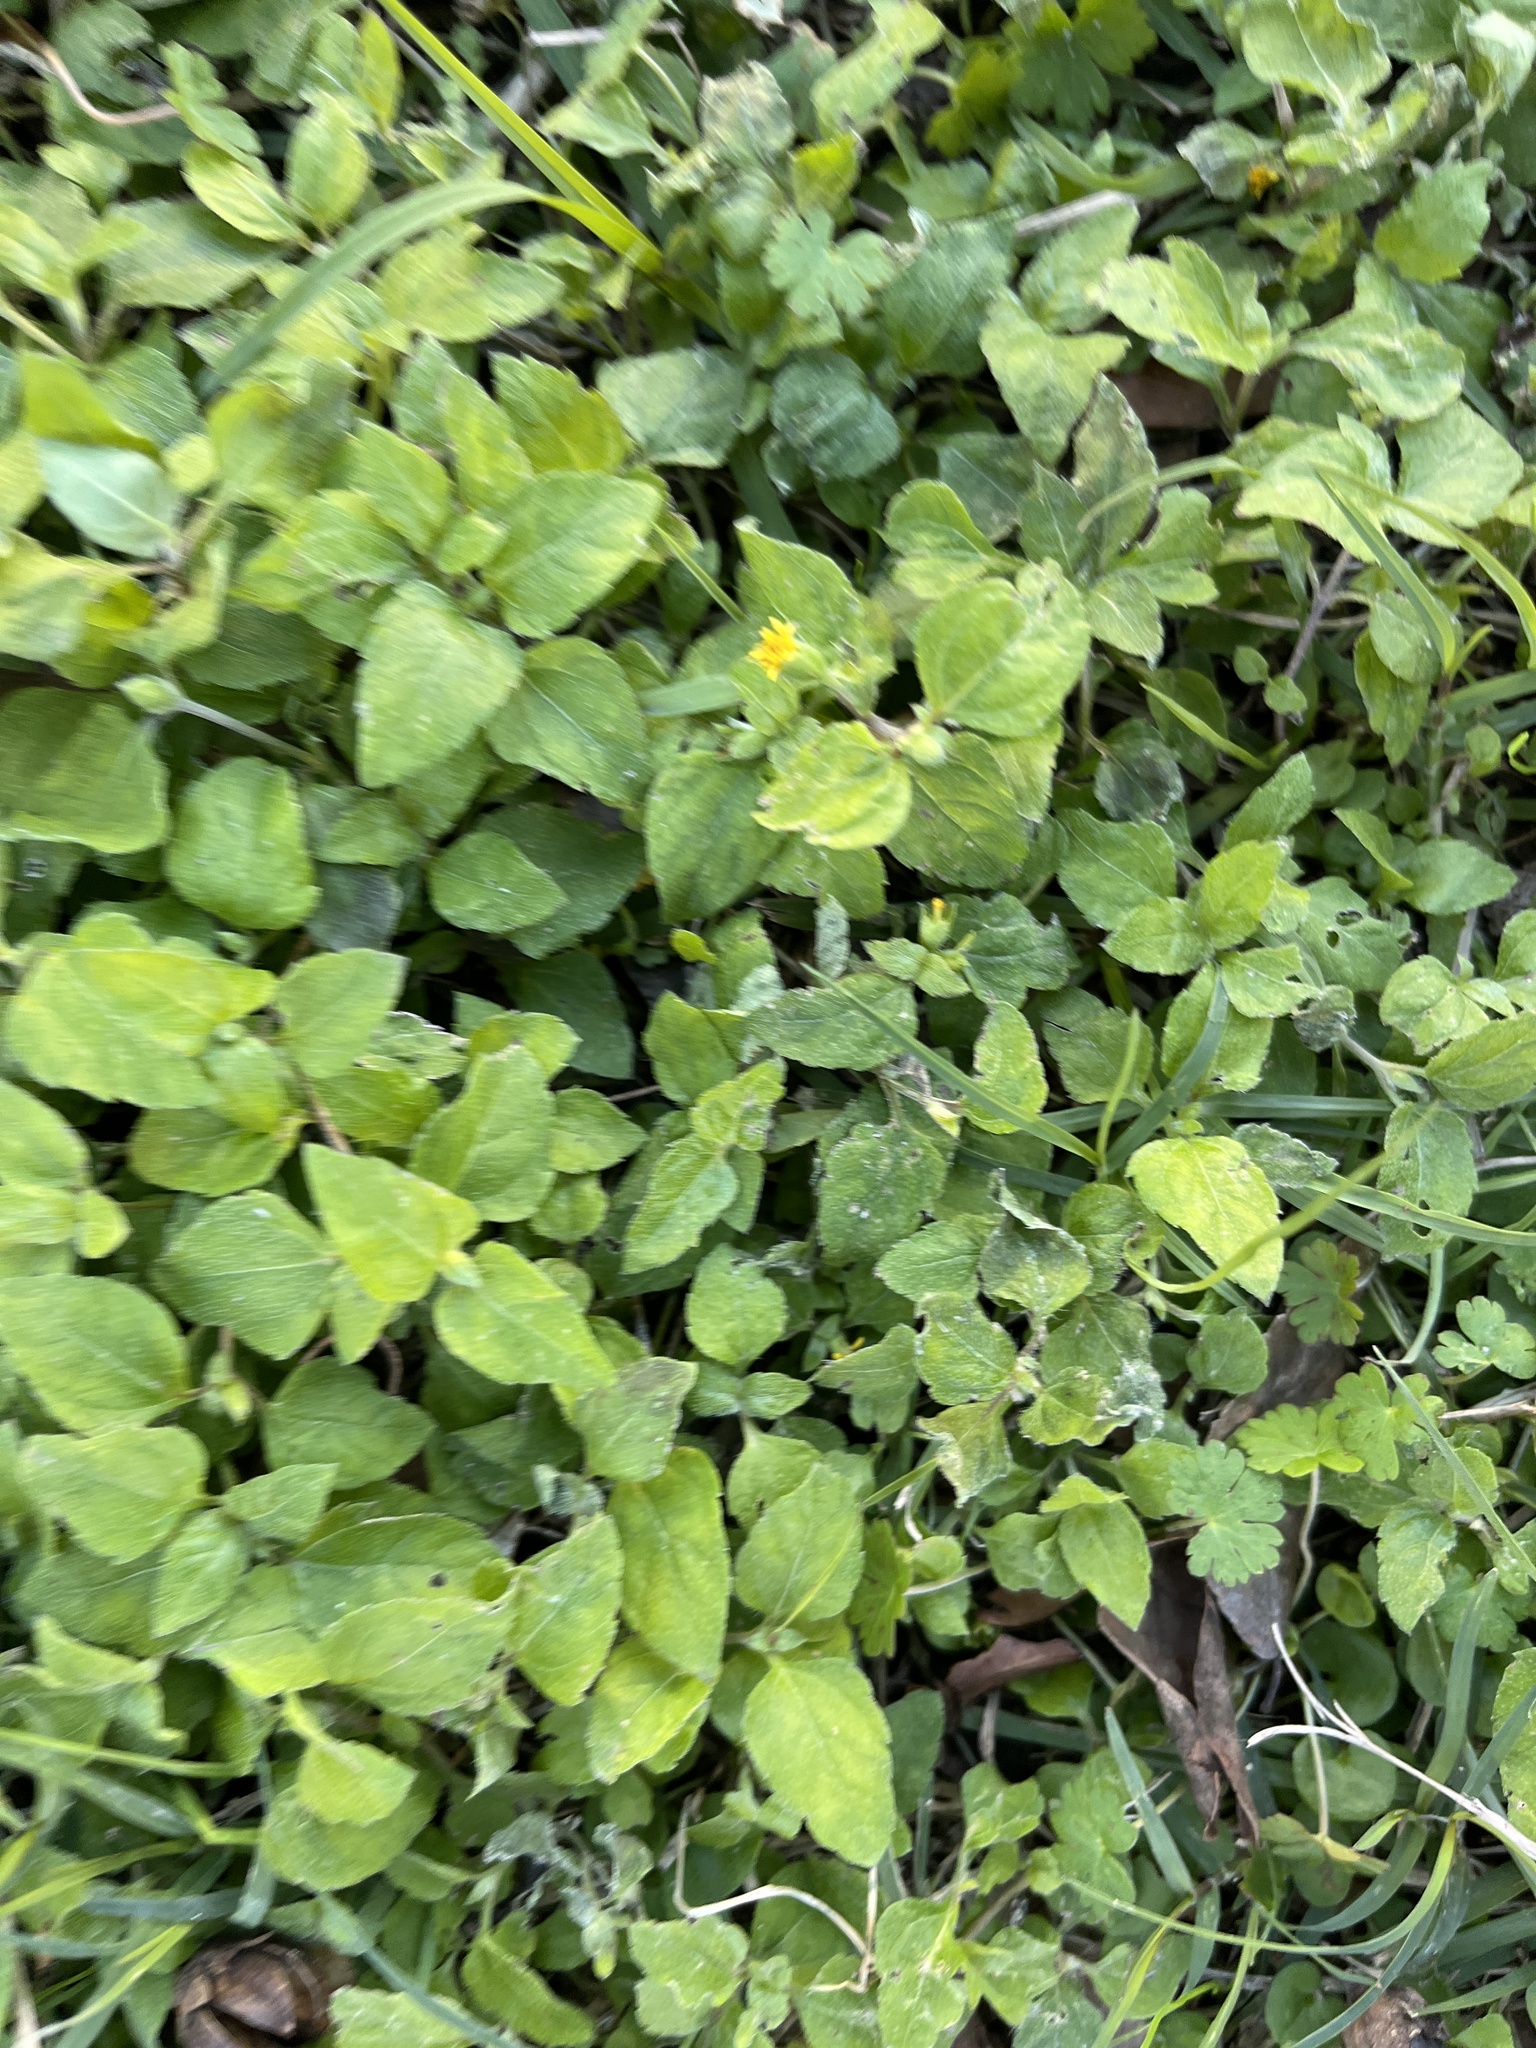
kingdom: Plantae
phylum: Tracheophyta
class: Magnoliopsida
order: Asterales
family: Asteraceae
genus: Calyptocarpus
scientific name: Calyptocarpus vialis
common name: Straggler daisy
